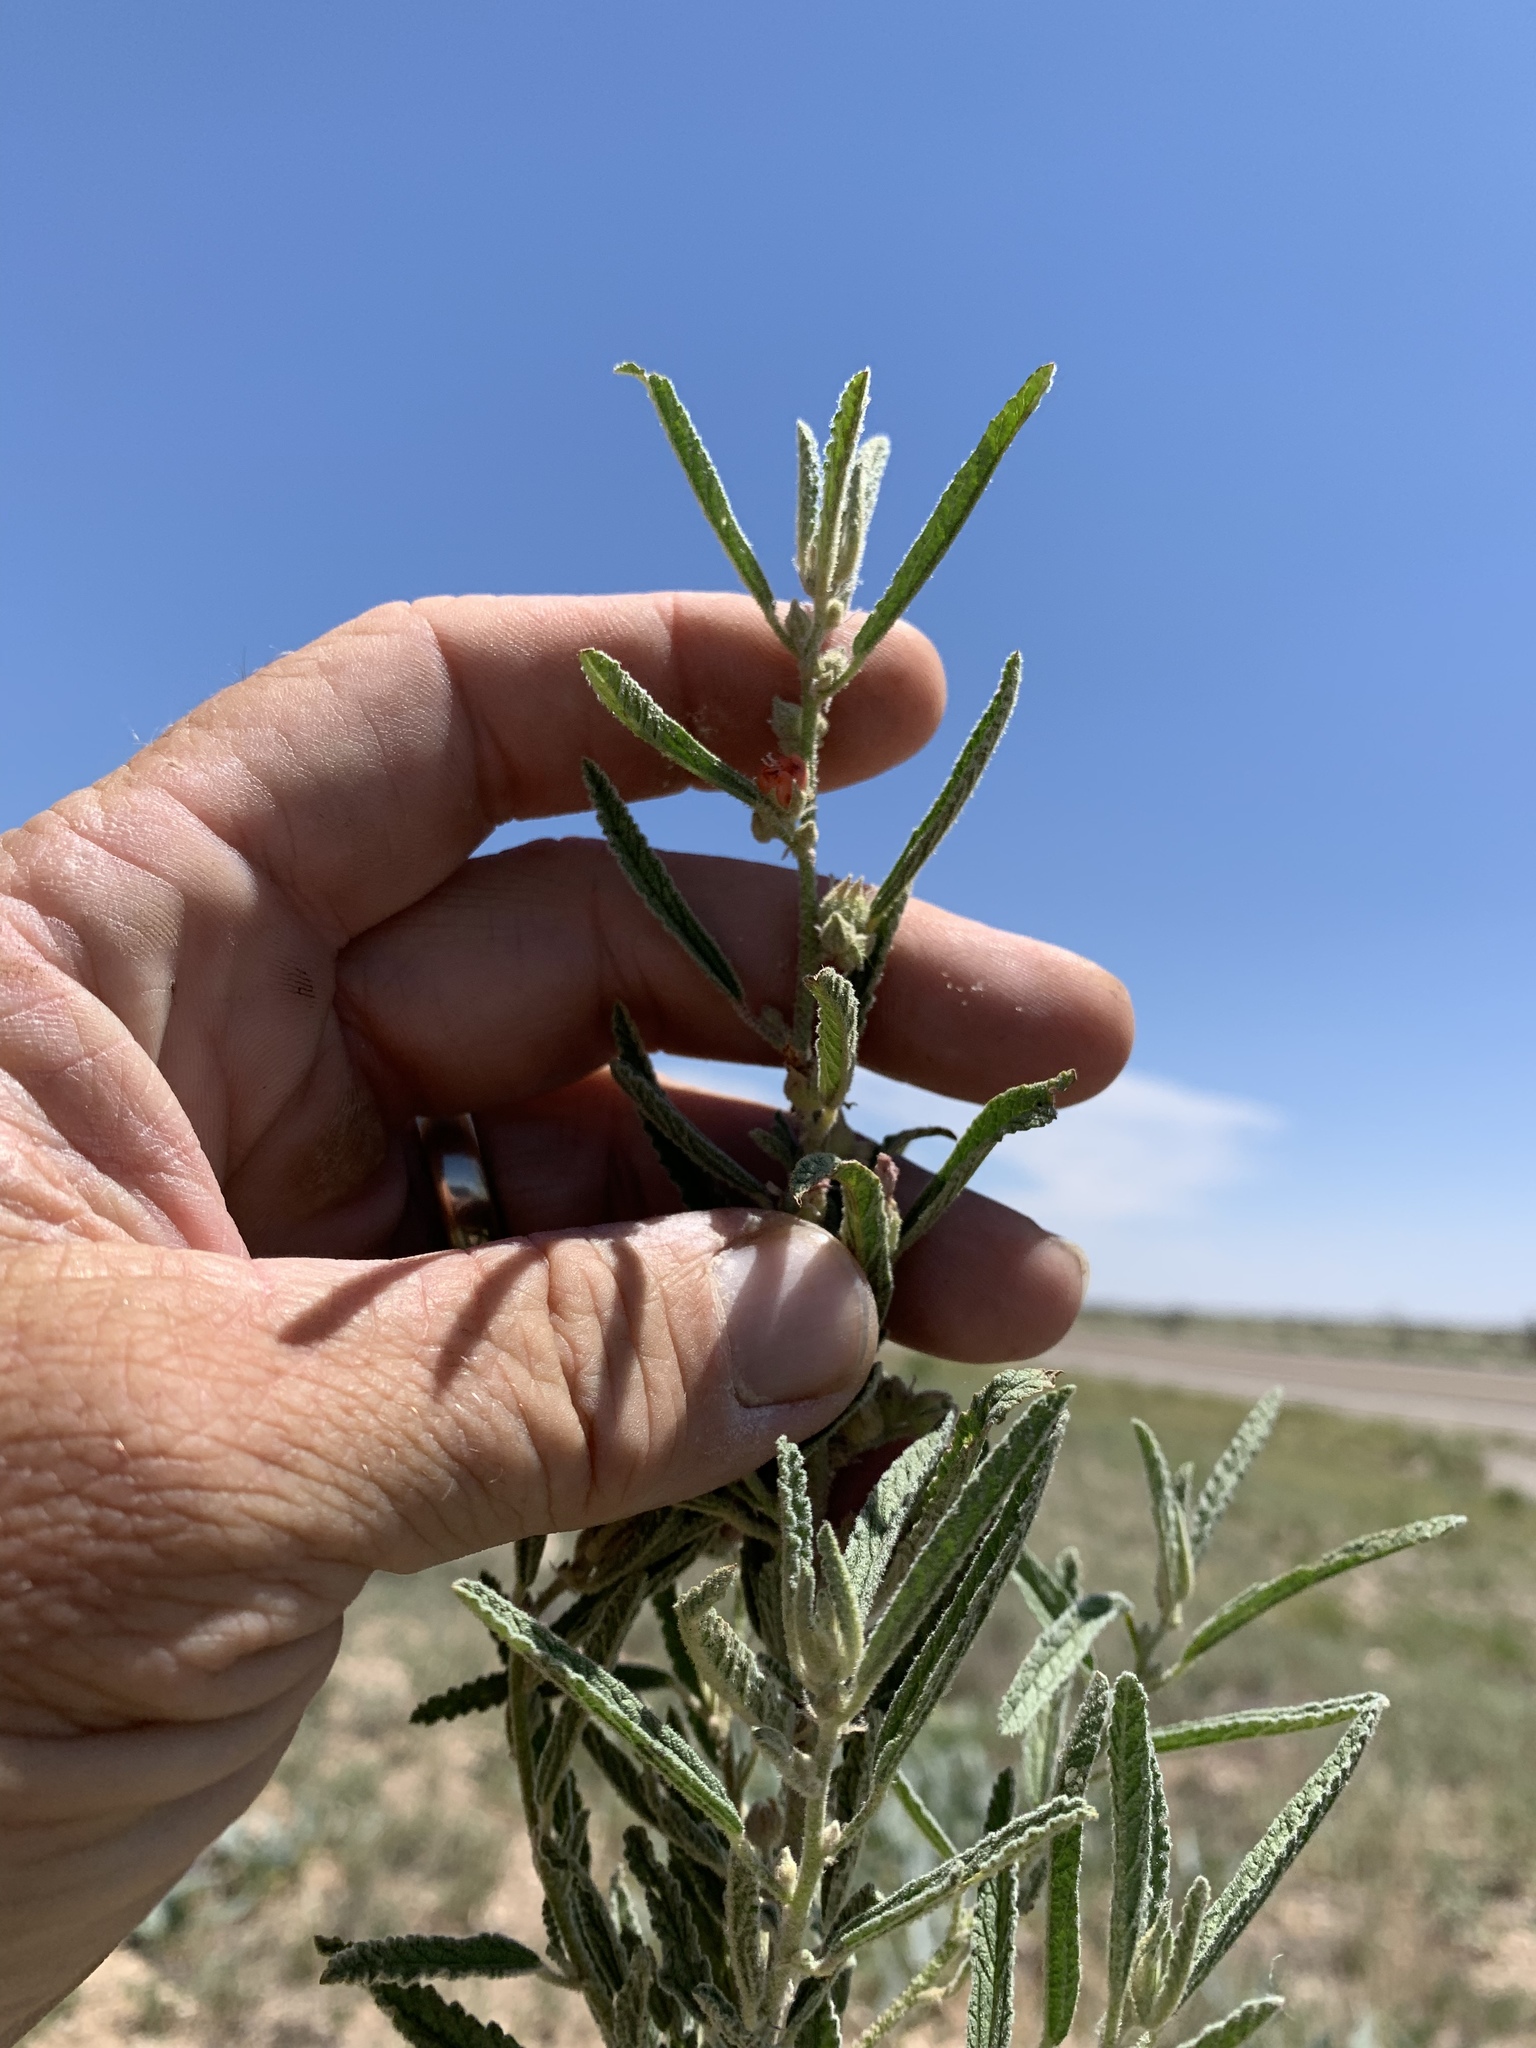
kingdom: Plantae
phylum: Tracheophyta
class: Magnoliopsida
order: Malvales
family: Malvaceae
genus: Sphaeralcea
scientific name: Sphaeralcea angustifolia
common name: Copper globe-mallow
